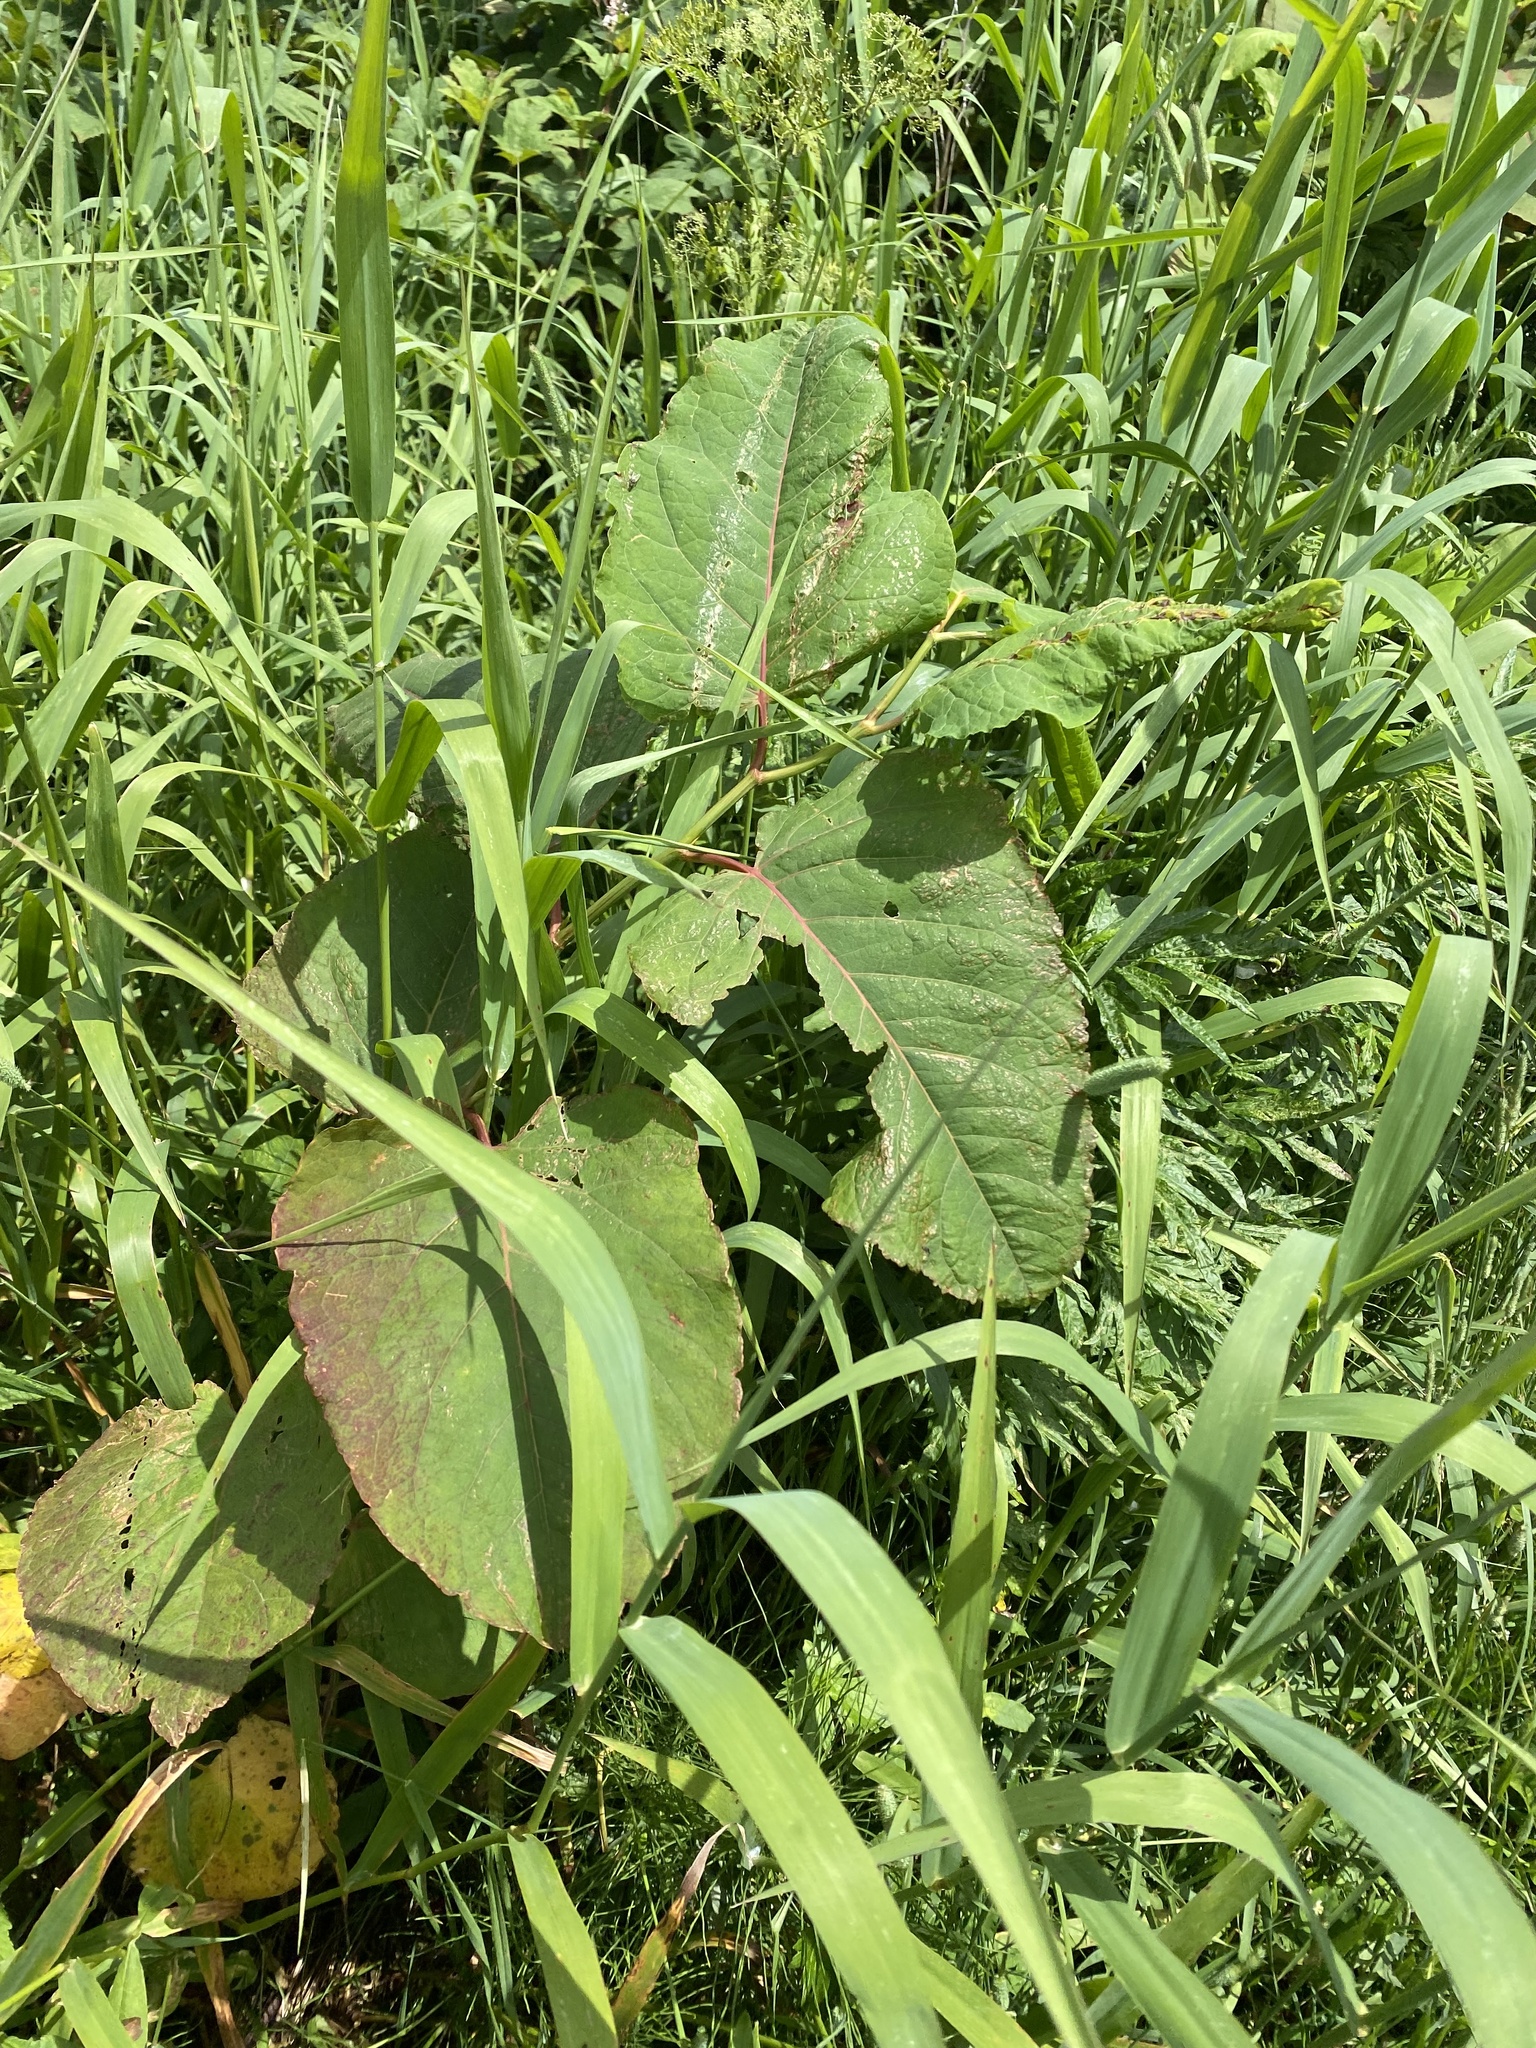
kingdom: Plantae
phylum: Tracheophyta
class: Magnoliopsida
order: Caryophyllales
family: Polygonaceae
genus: Reynoutria
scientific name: Reynoutria sachalinensis
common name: Giant knotweed
